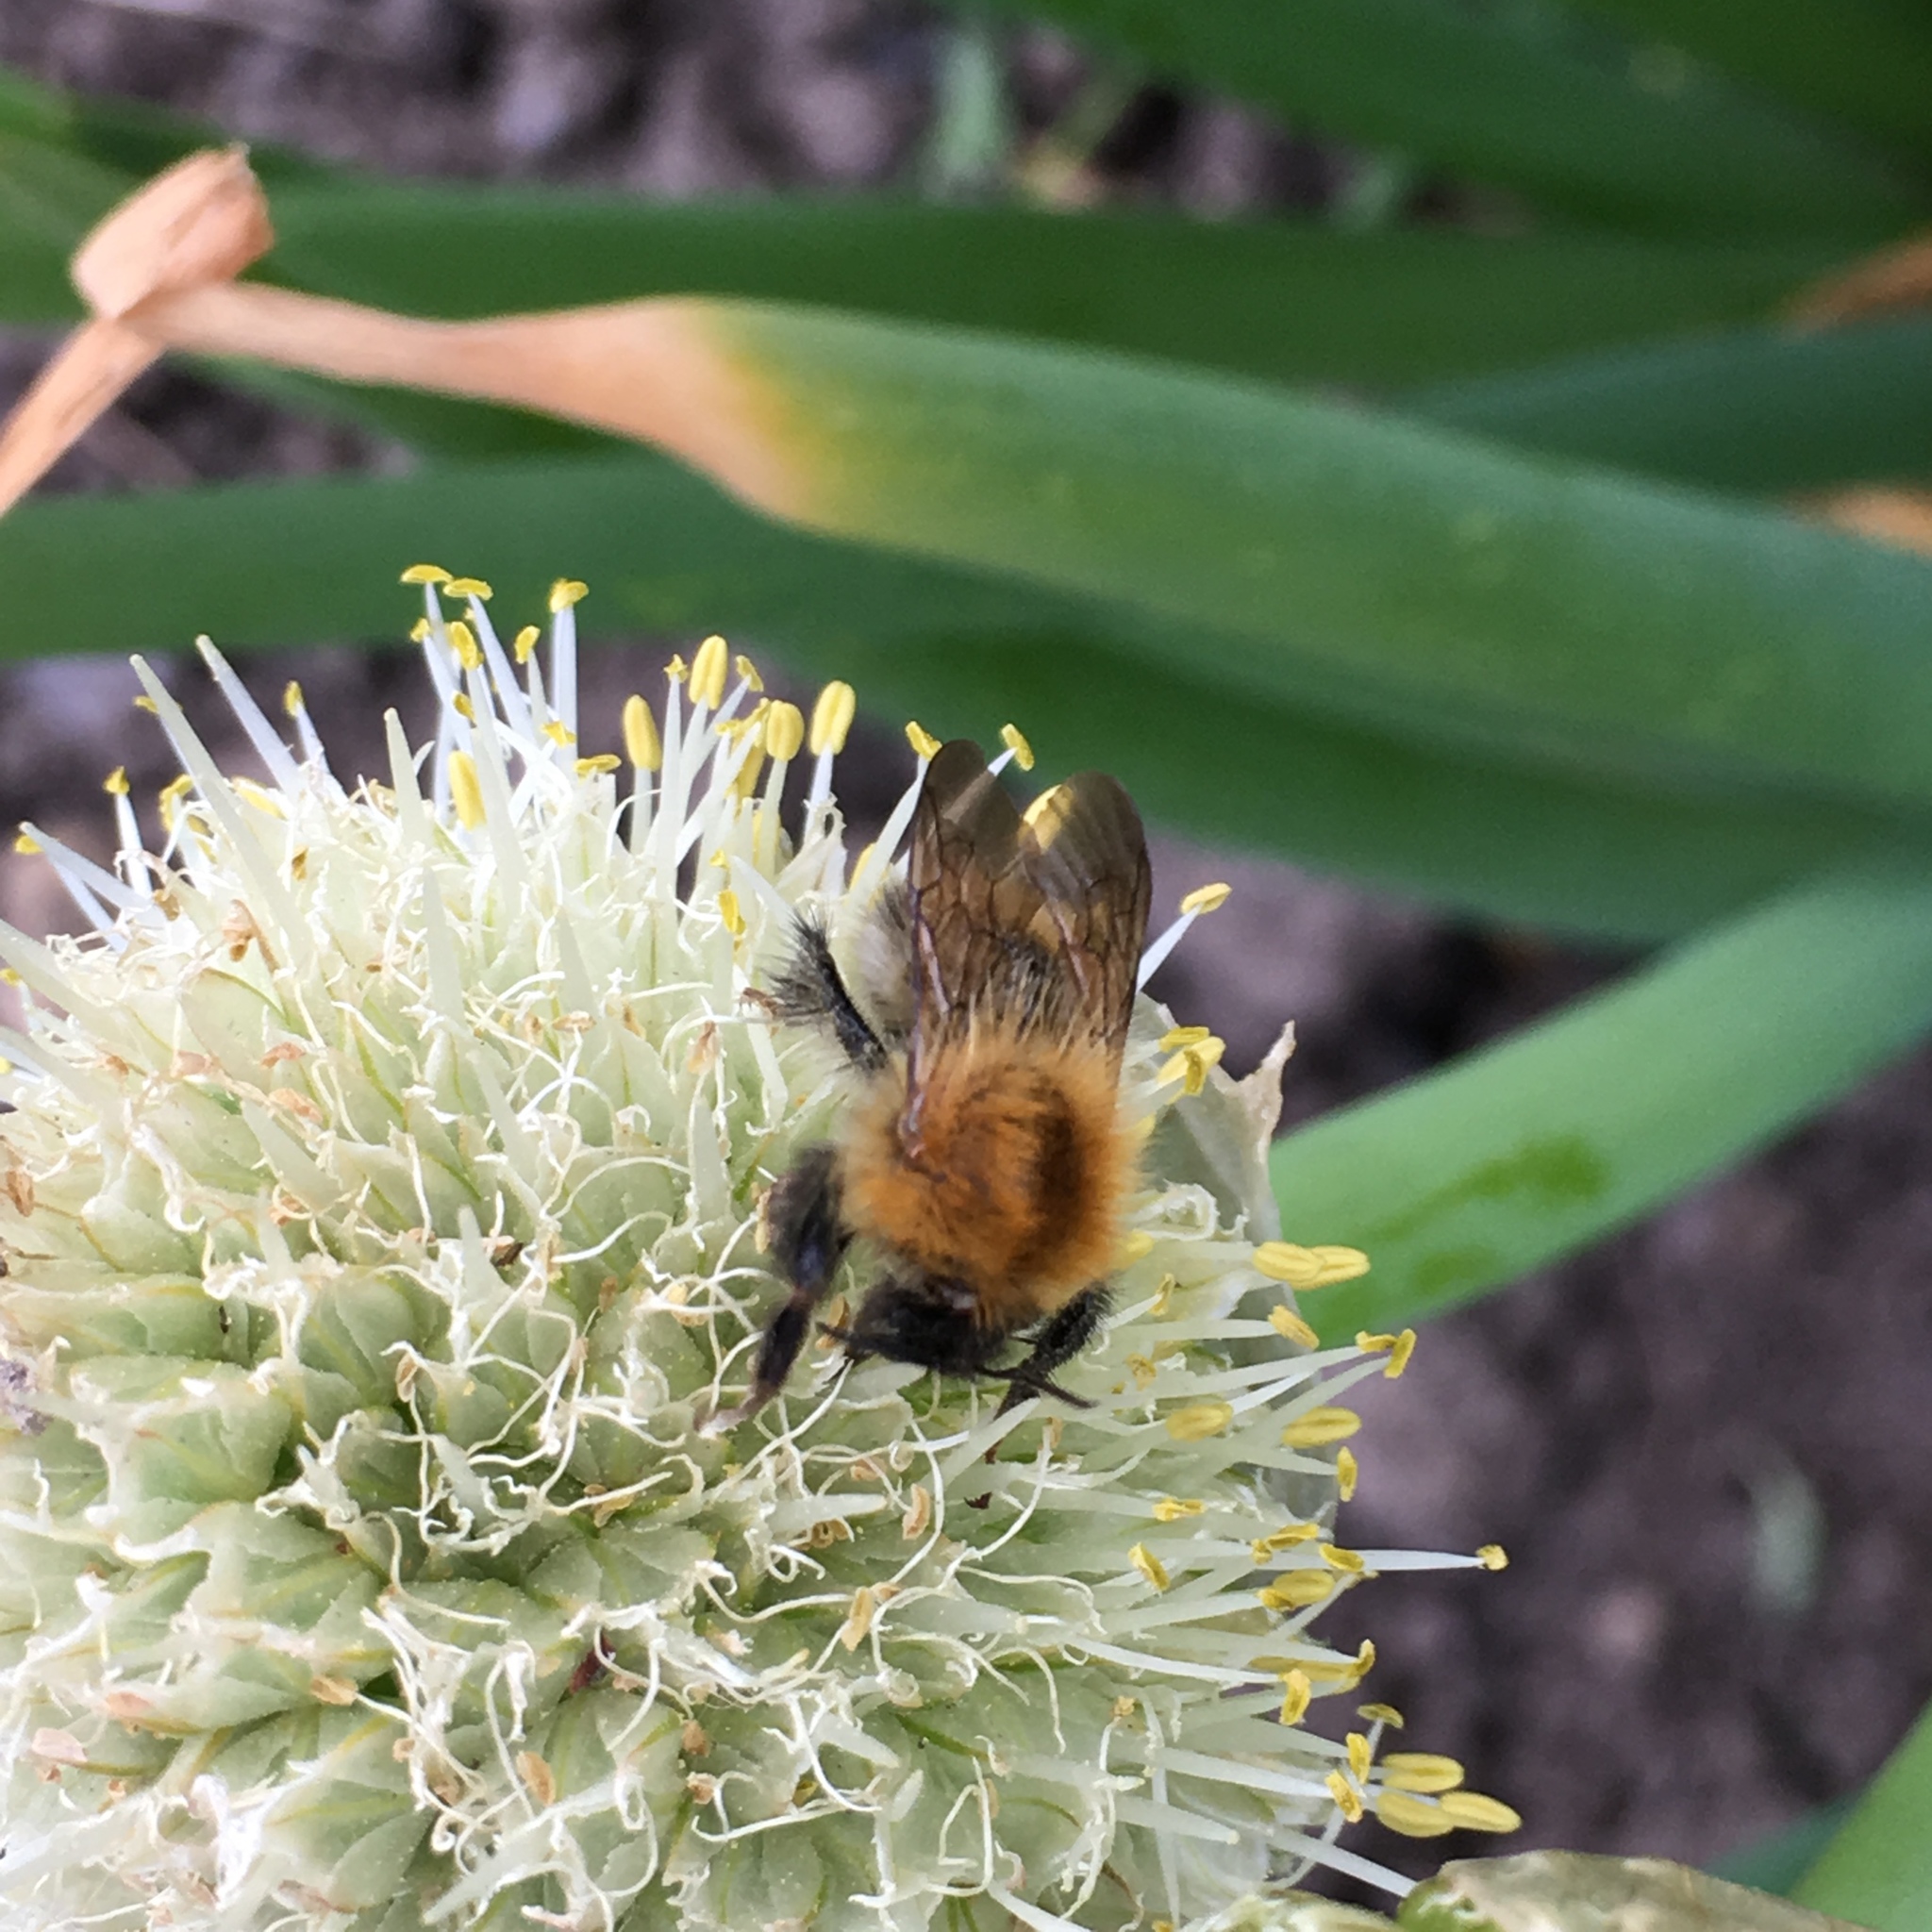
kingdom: Animalia
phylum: Arthropoda
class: Insecta
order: Hymenoptera
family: Apidae
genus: Bombus
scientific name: Bombus pascuorum
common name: Common carder bee
